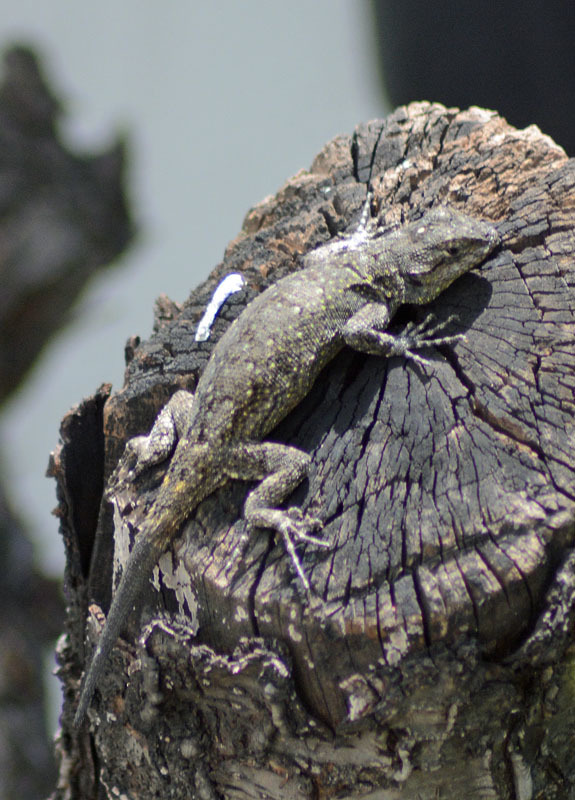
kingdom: Animalia
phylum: Chordata
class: Squamata
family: Phrynosomatidae
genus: Sceloporus
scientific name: Sceloporus grammicus
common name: Mesquite lizard
